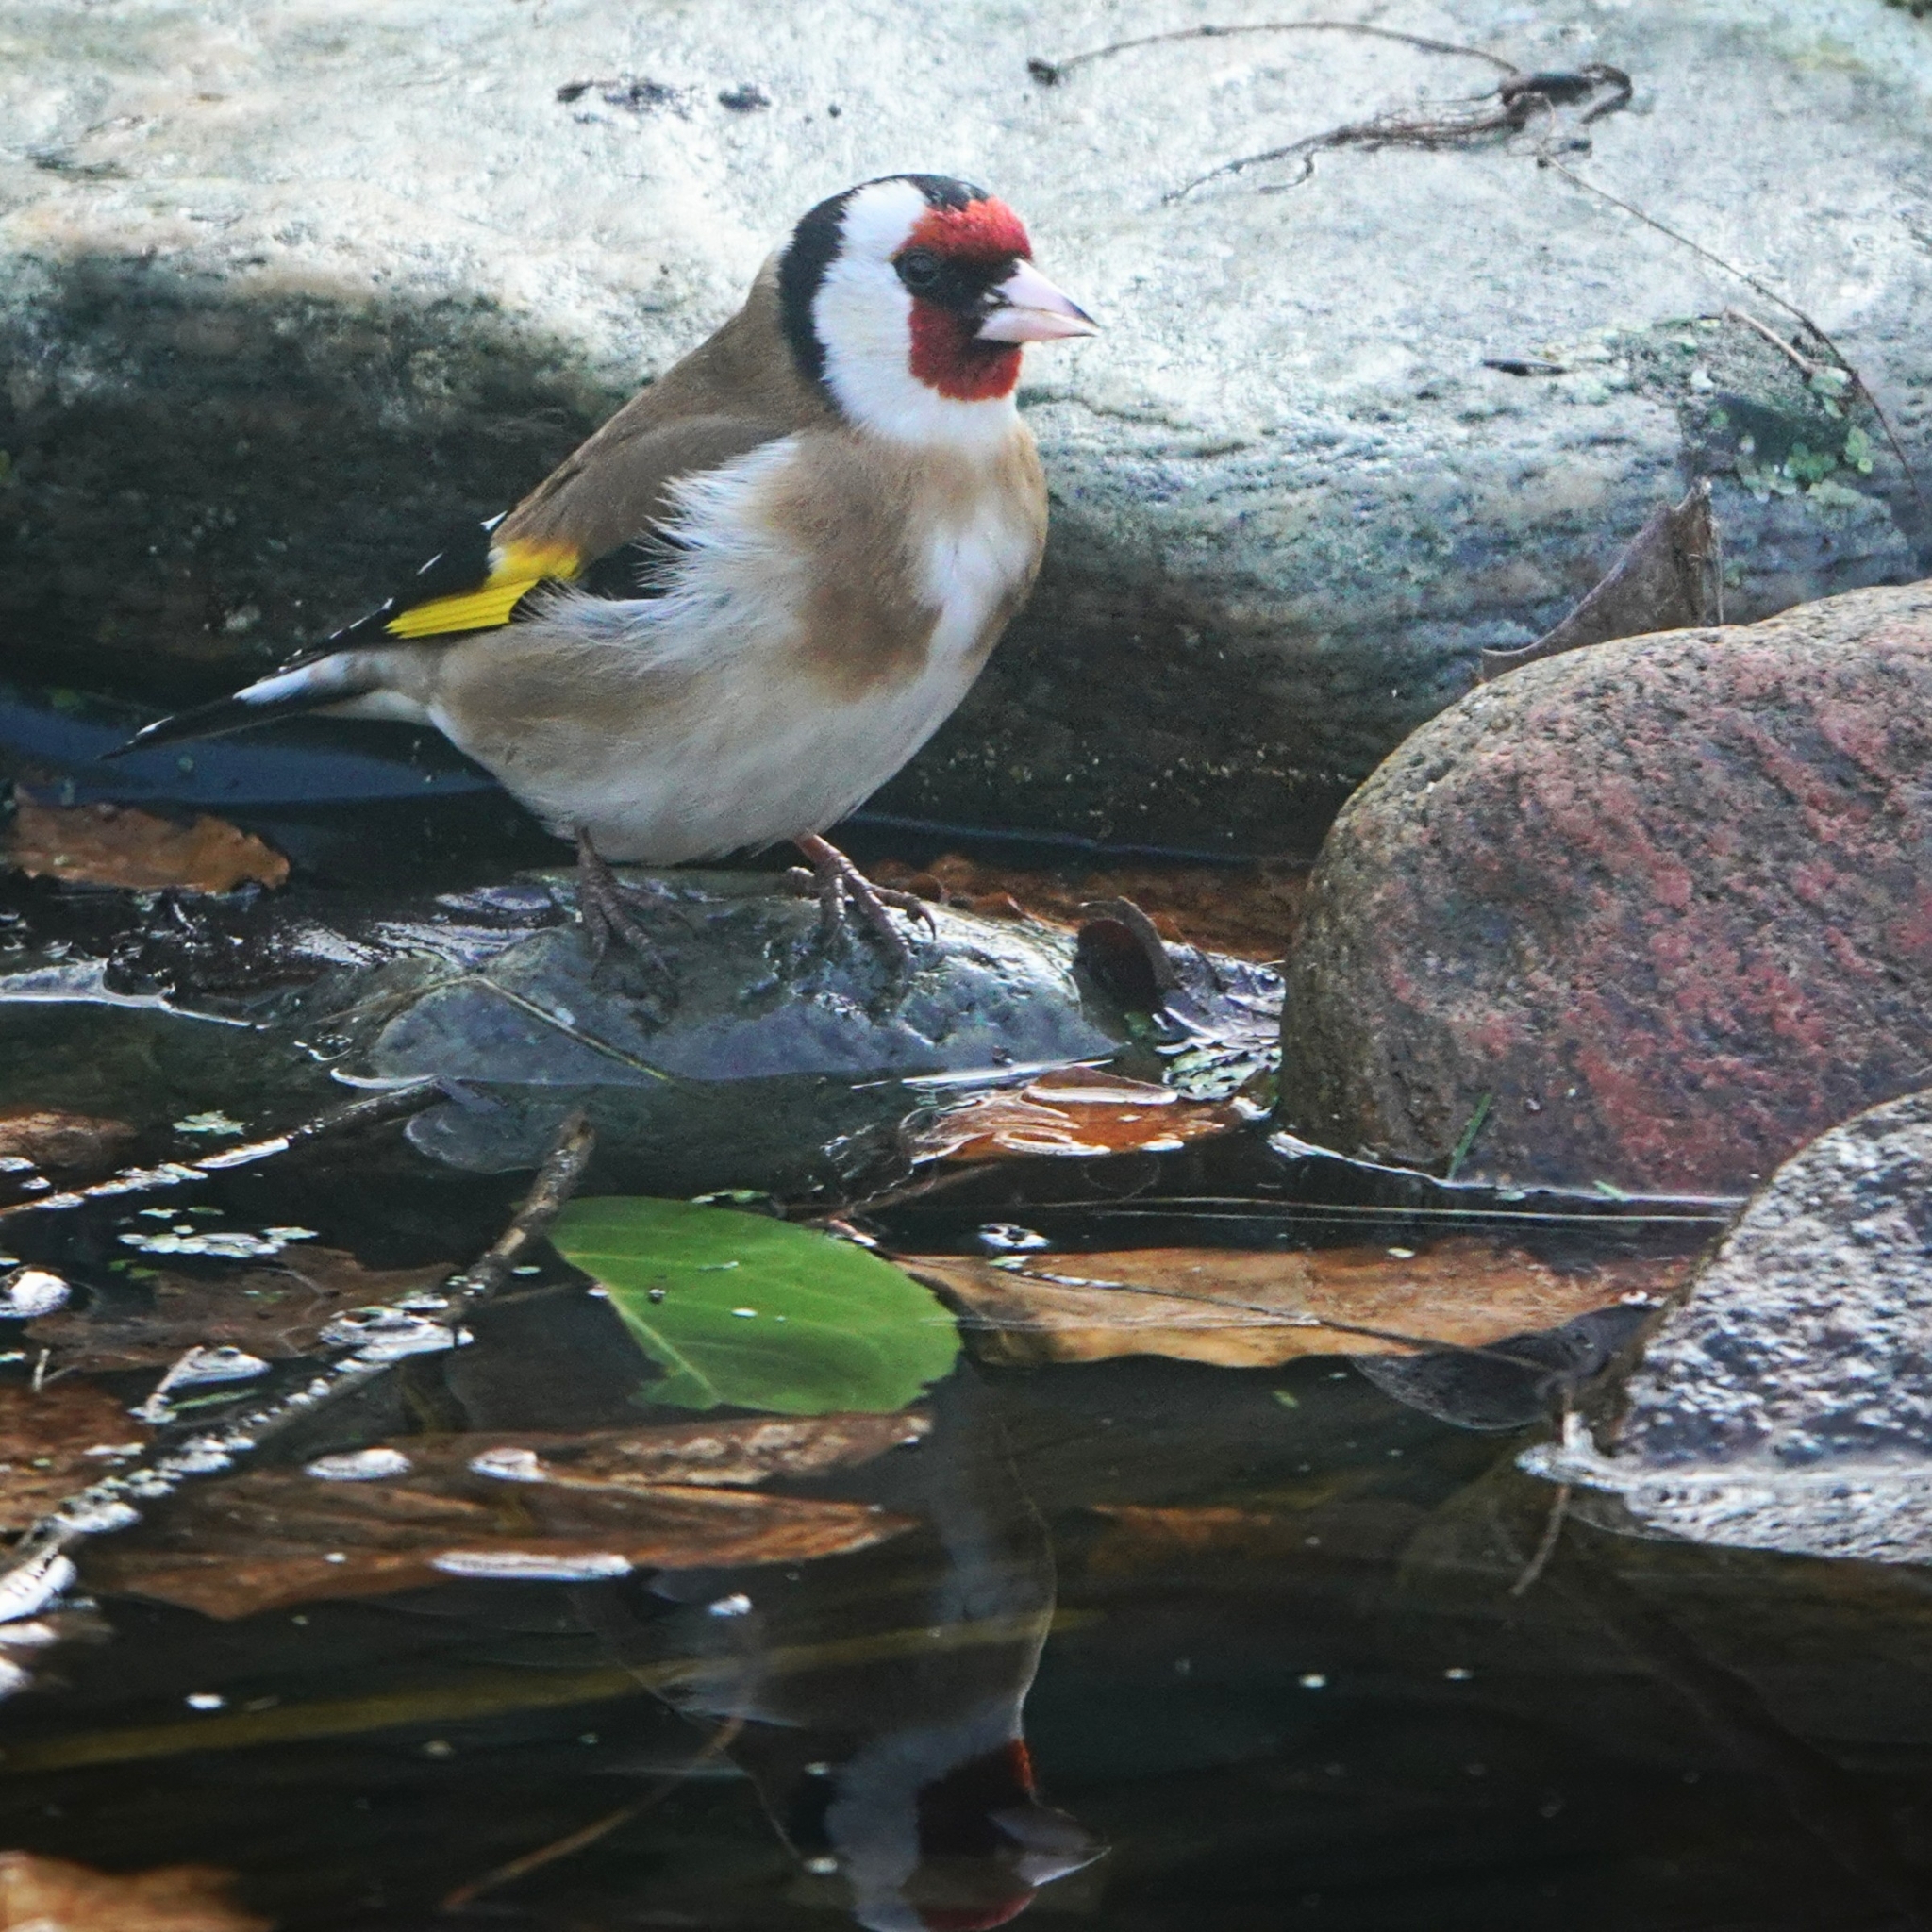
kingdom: Animalia
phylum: Chordata
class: Aves
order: Passeriformes
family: Fringillidae
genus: Carduelis
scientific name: Carduelis carduelis
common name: European goldfinch
